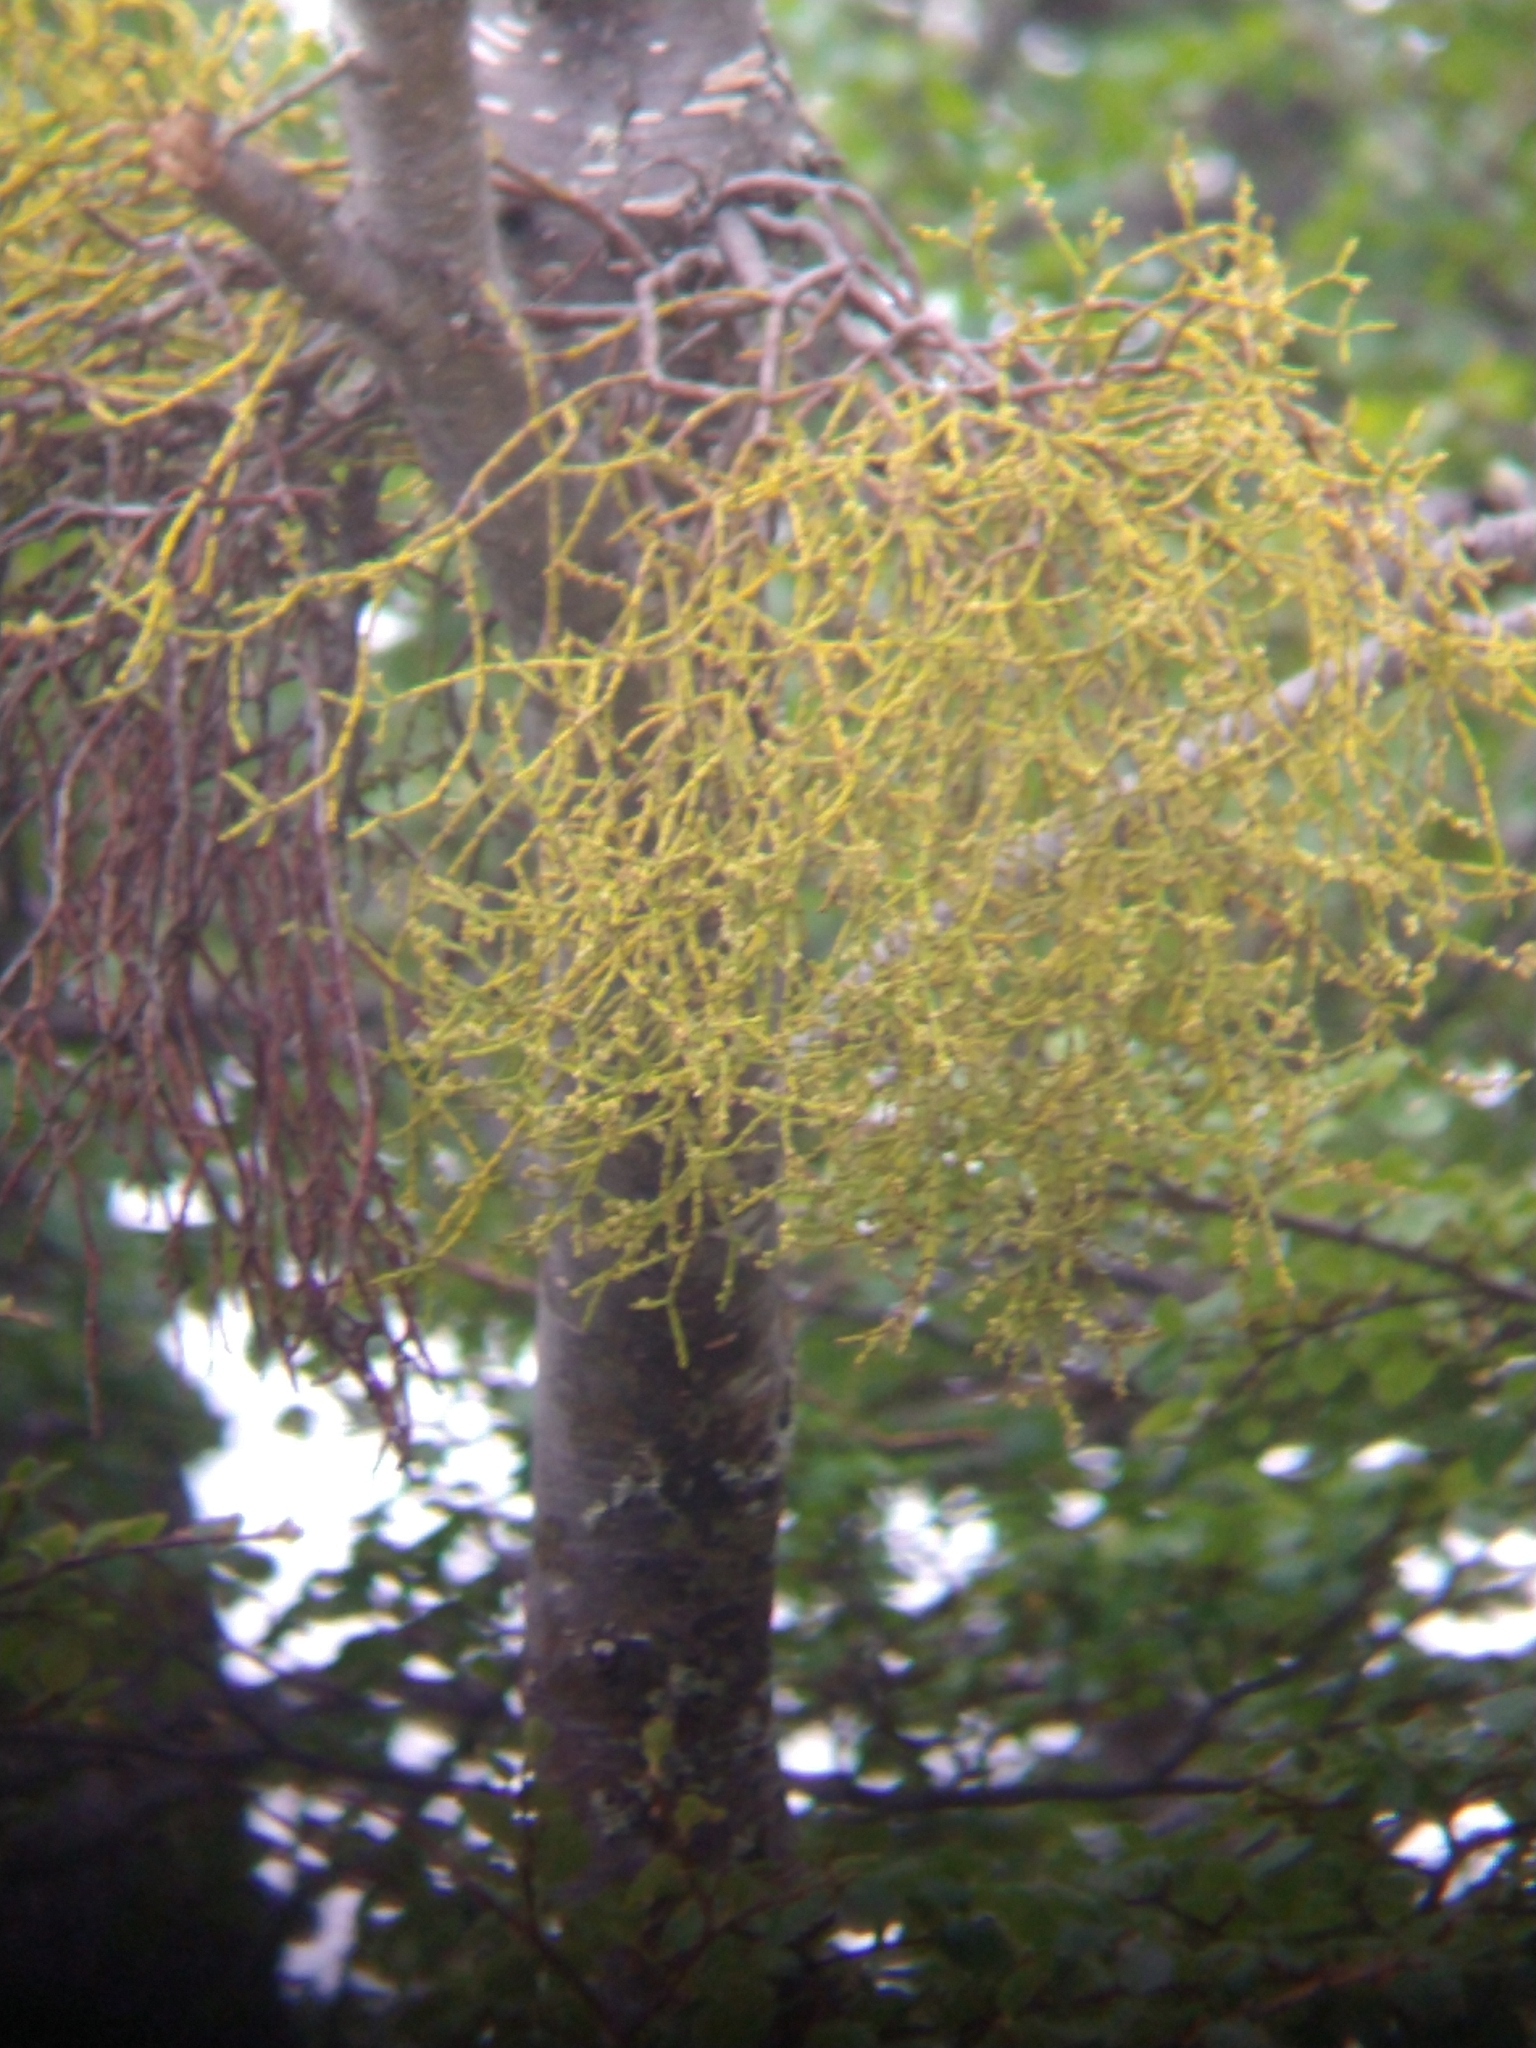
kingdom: Plantae
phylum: Tracheophyta
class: Magnoliopsida
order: Santalales
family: Misodendraceae
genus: Misodendrum
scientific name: Misodendrum punctulatum
